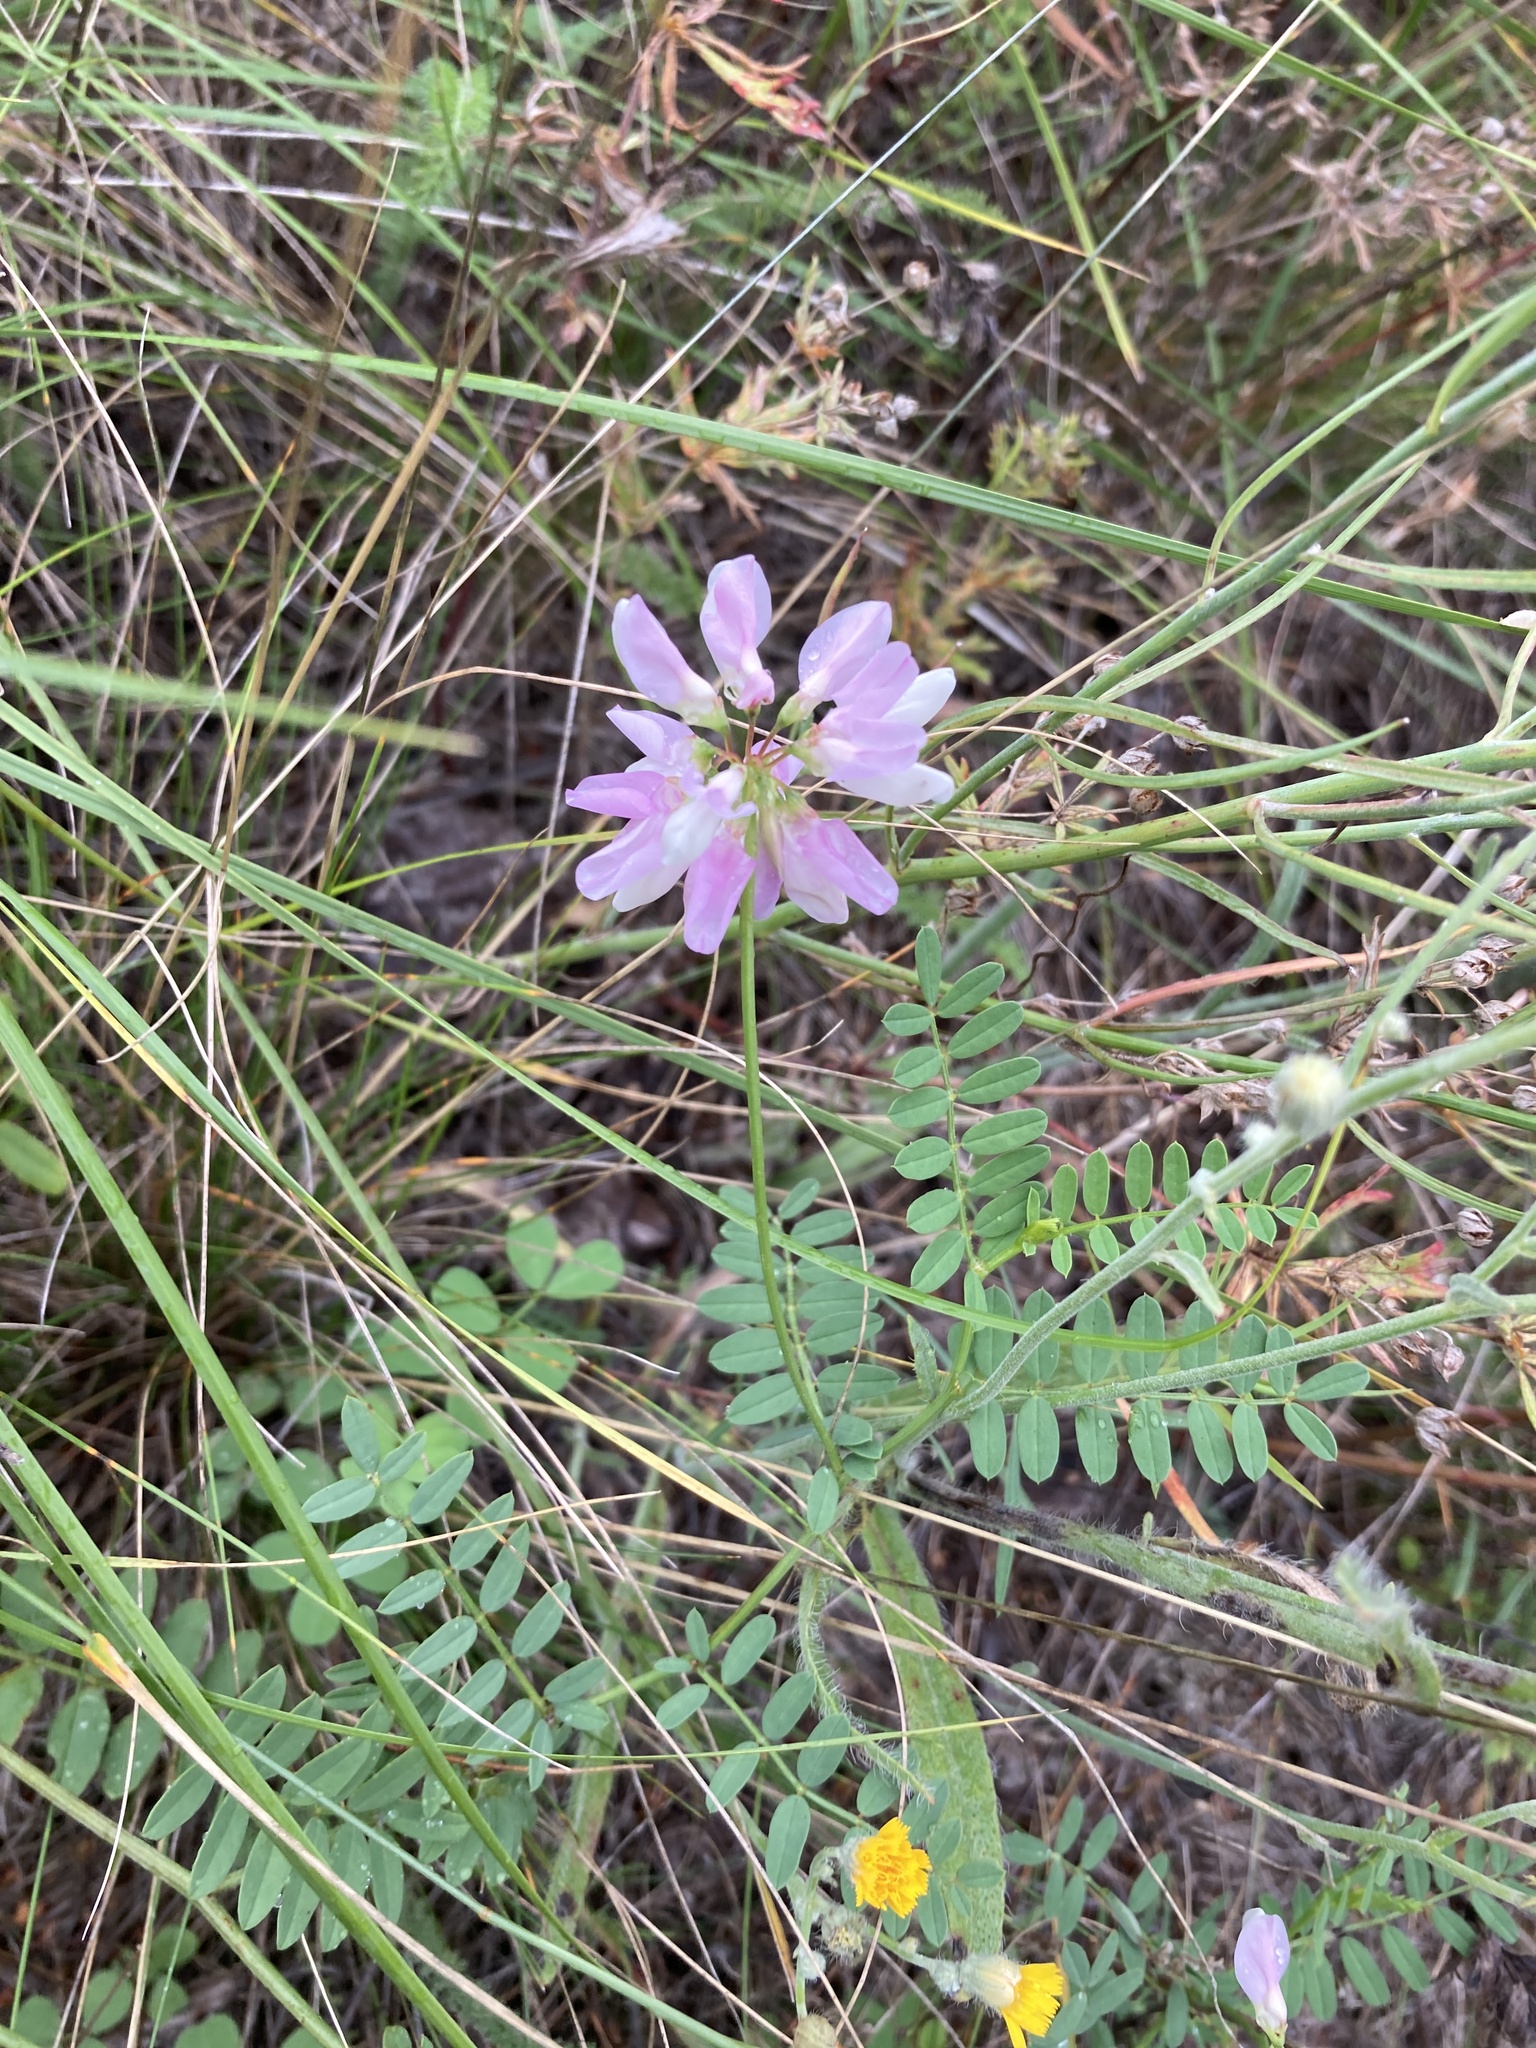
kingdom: Plantae
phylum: Tracheophyta
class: Magnoliopsida
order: Fabales
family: Fabaceae
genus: Coronilla
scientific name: Coronilla varia
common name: Crownvetch
